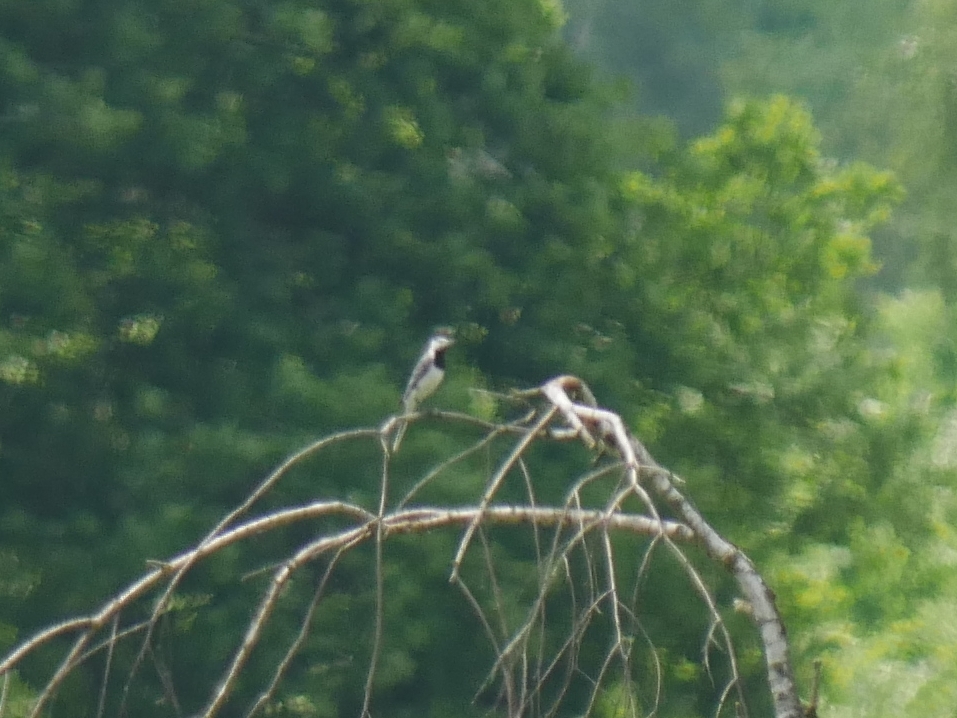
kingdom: Animalia
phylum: Chordata
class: Aves
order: Passeriformes
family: Motacillidae
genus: Motacilla
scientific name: Motacilla alba
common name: White wagtail
